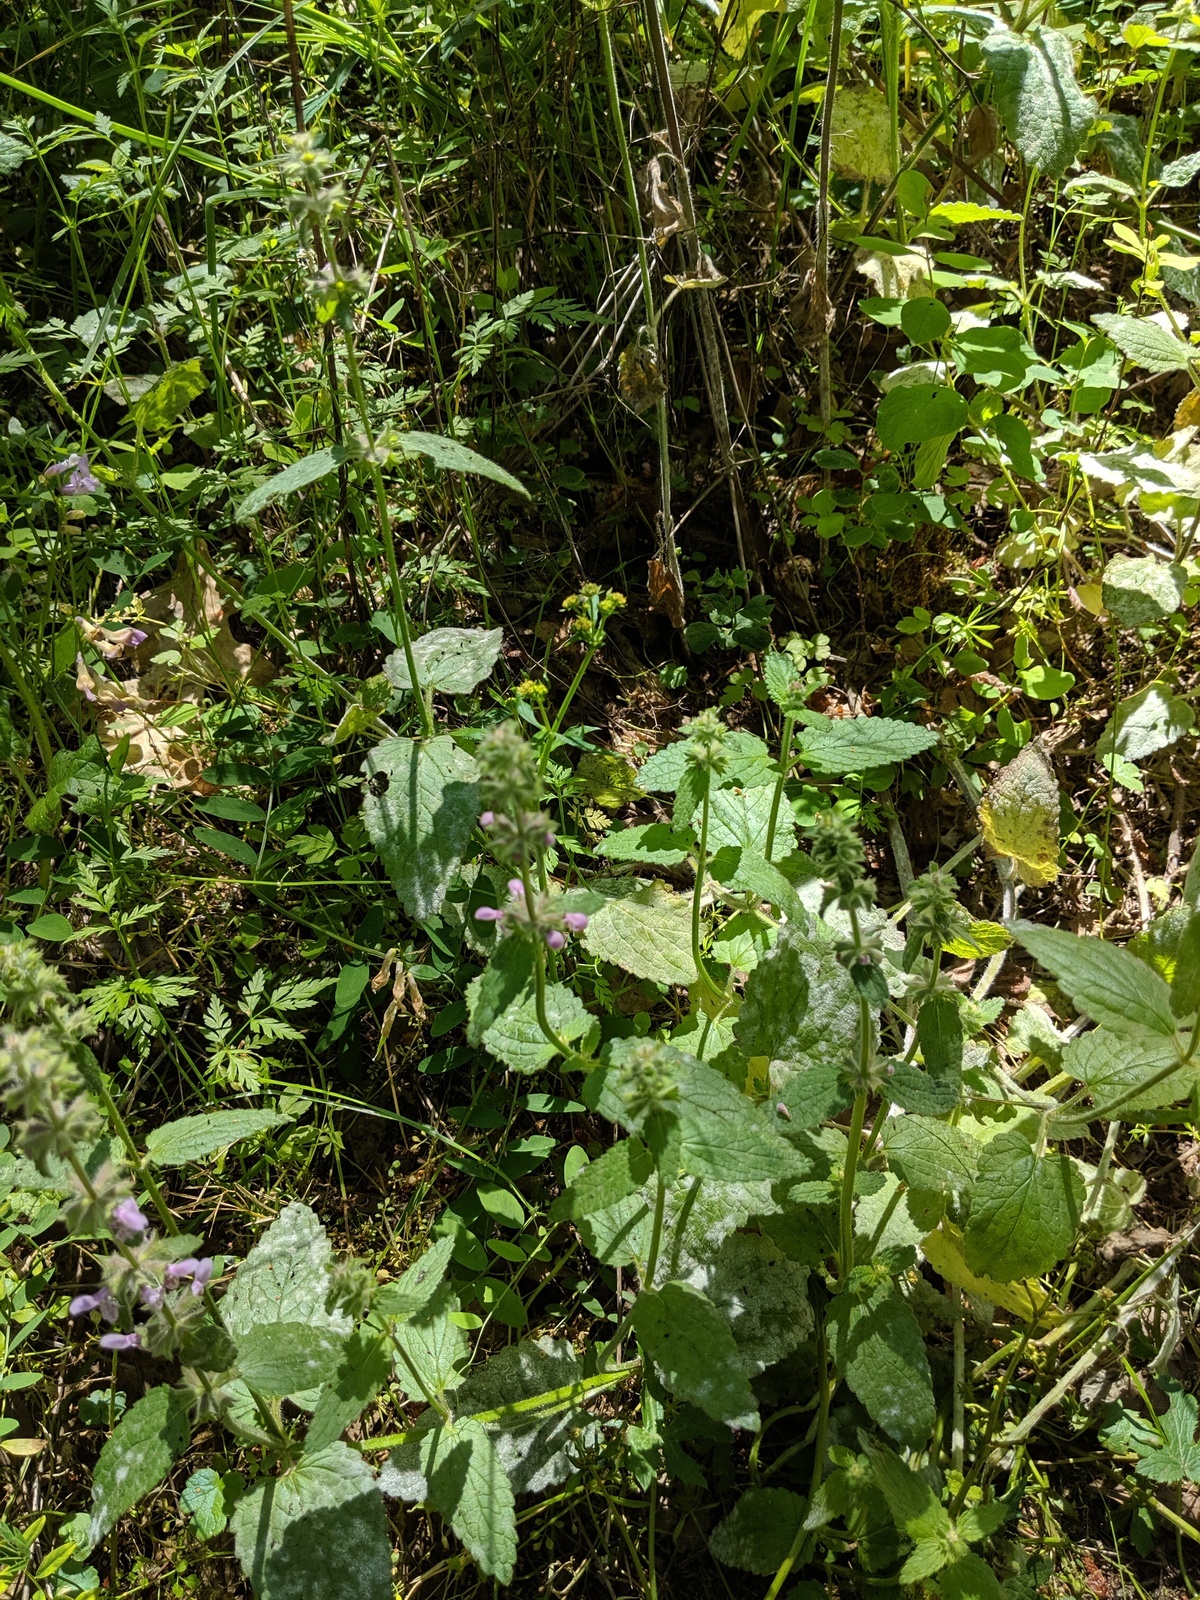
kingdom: Plantae
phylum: Tracheophyta
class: Magnoliopsida
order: Lamiales
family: Lamiaceae
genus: Stachys
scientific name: Stachys bullata
